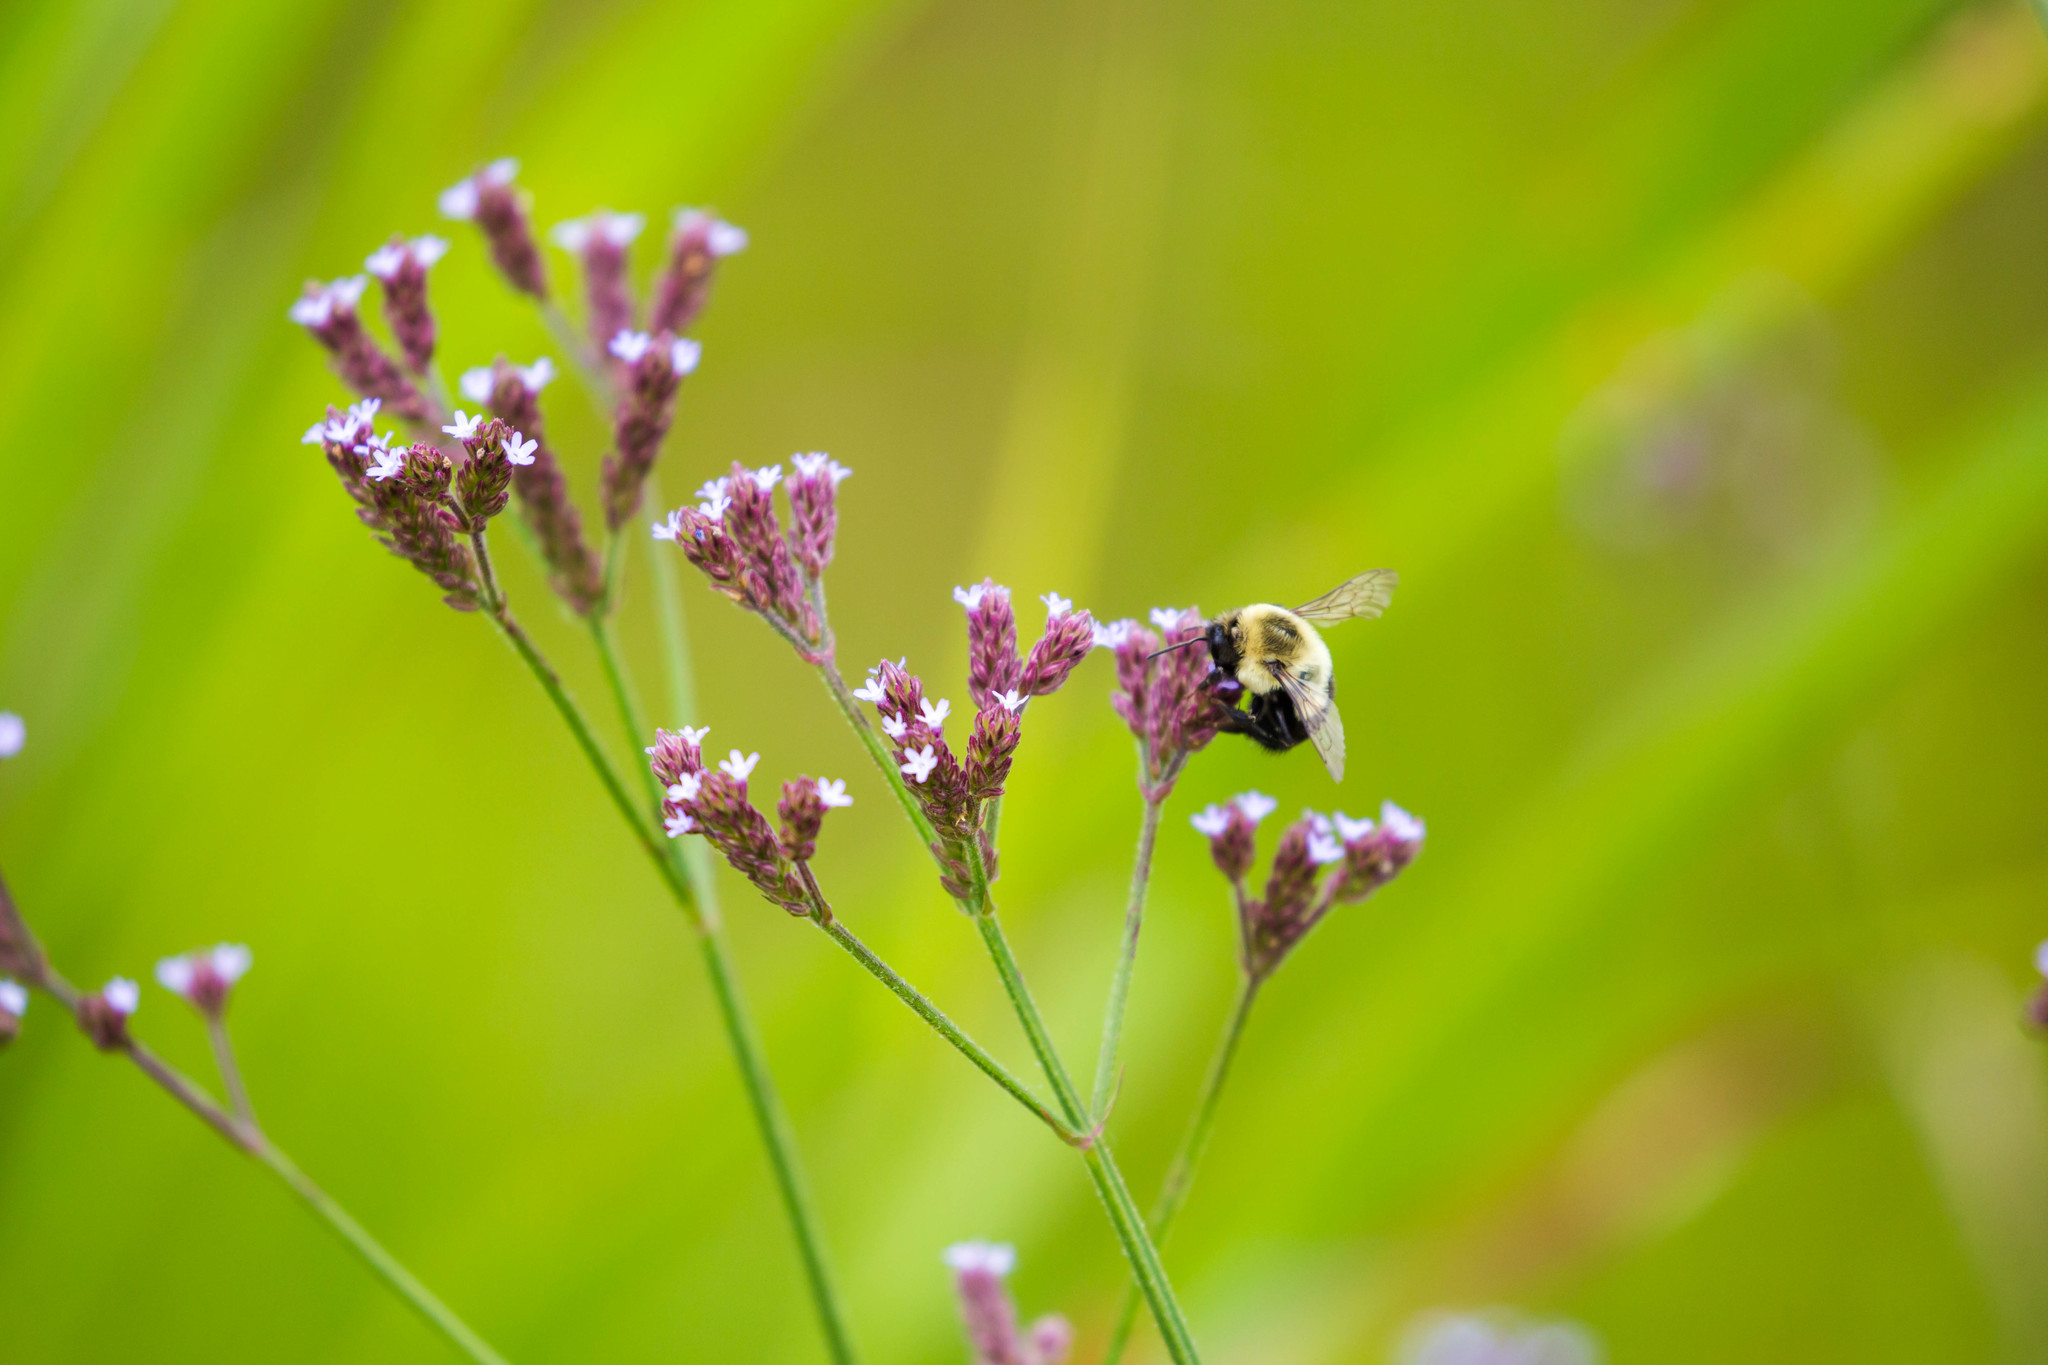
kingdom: Animalia
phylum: Arthropoda
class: Insecta
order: Hymenoptera
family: Apidae
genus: Bombus
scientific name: Bombus impatiens
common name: Common eastern bumble bee
